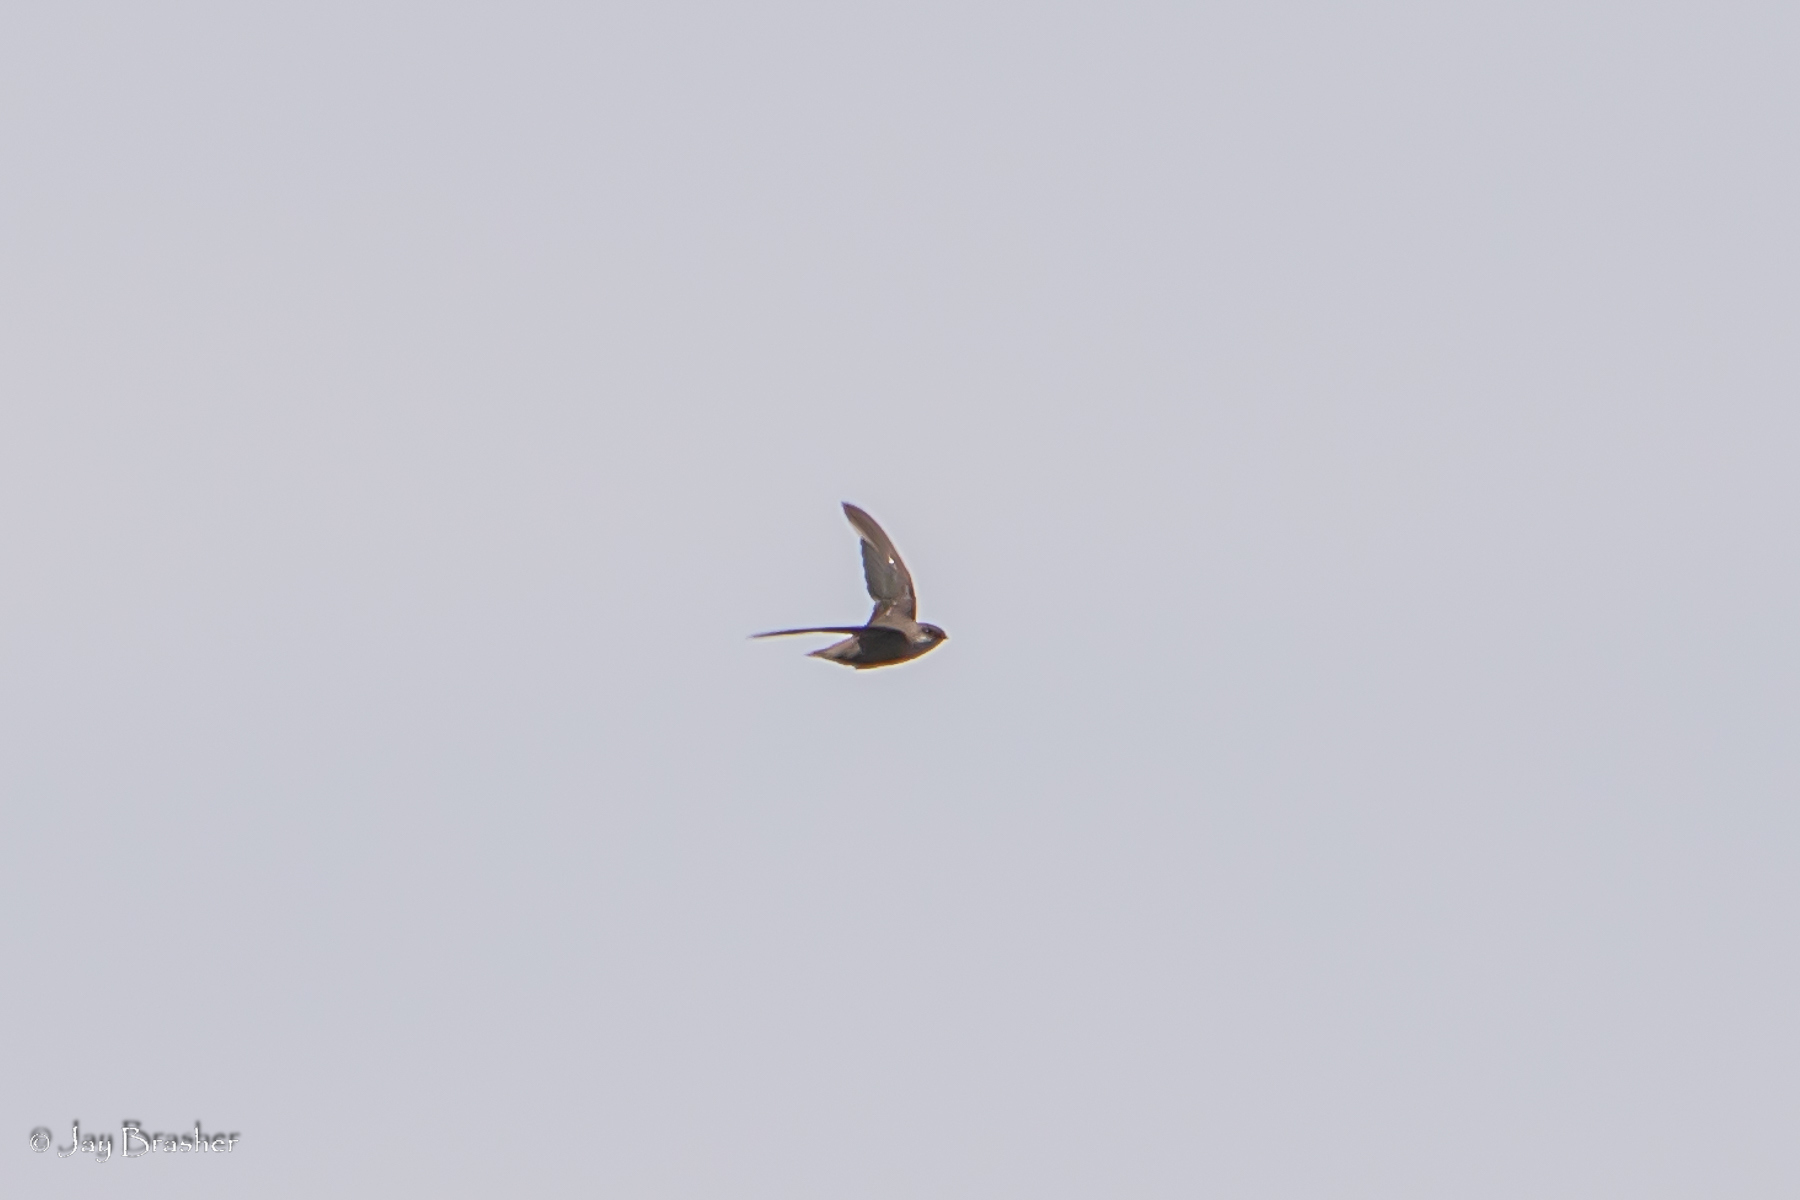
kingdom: Animalia
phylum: Chordata
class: Aves
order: Apodiformes
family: Apodidae
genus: Chaetura
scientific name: Chaetura pelagica
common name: Chimney swift
